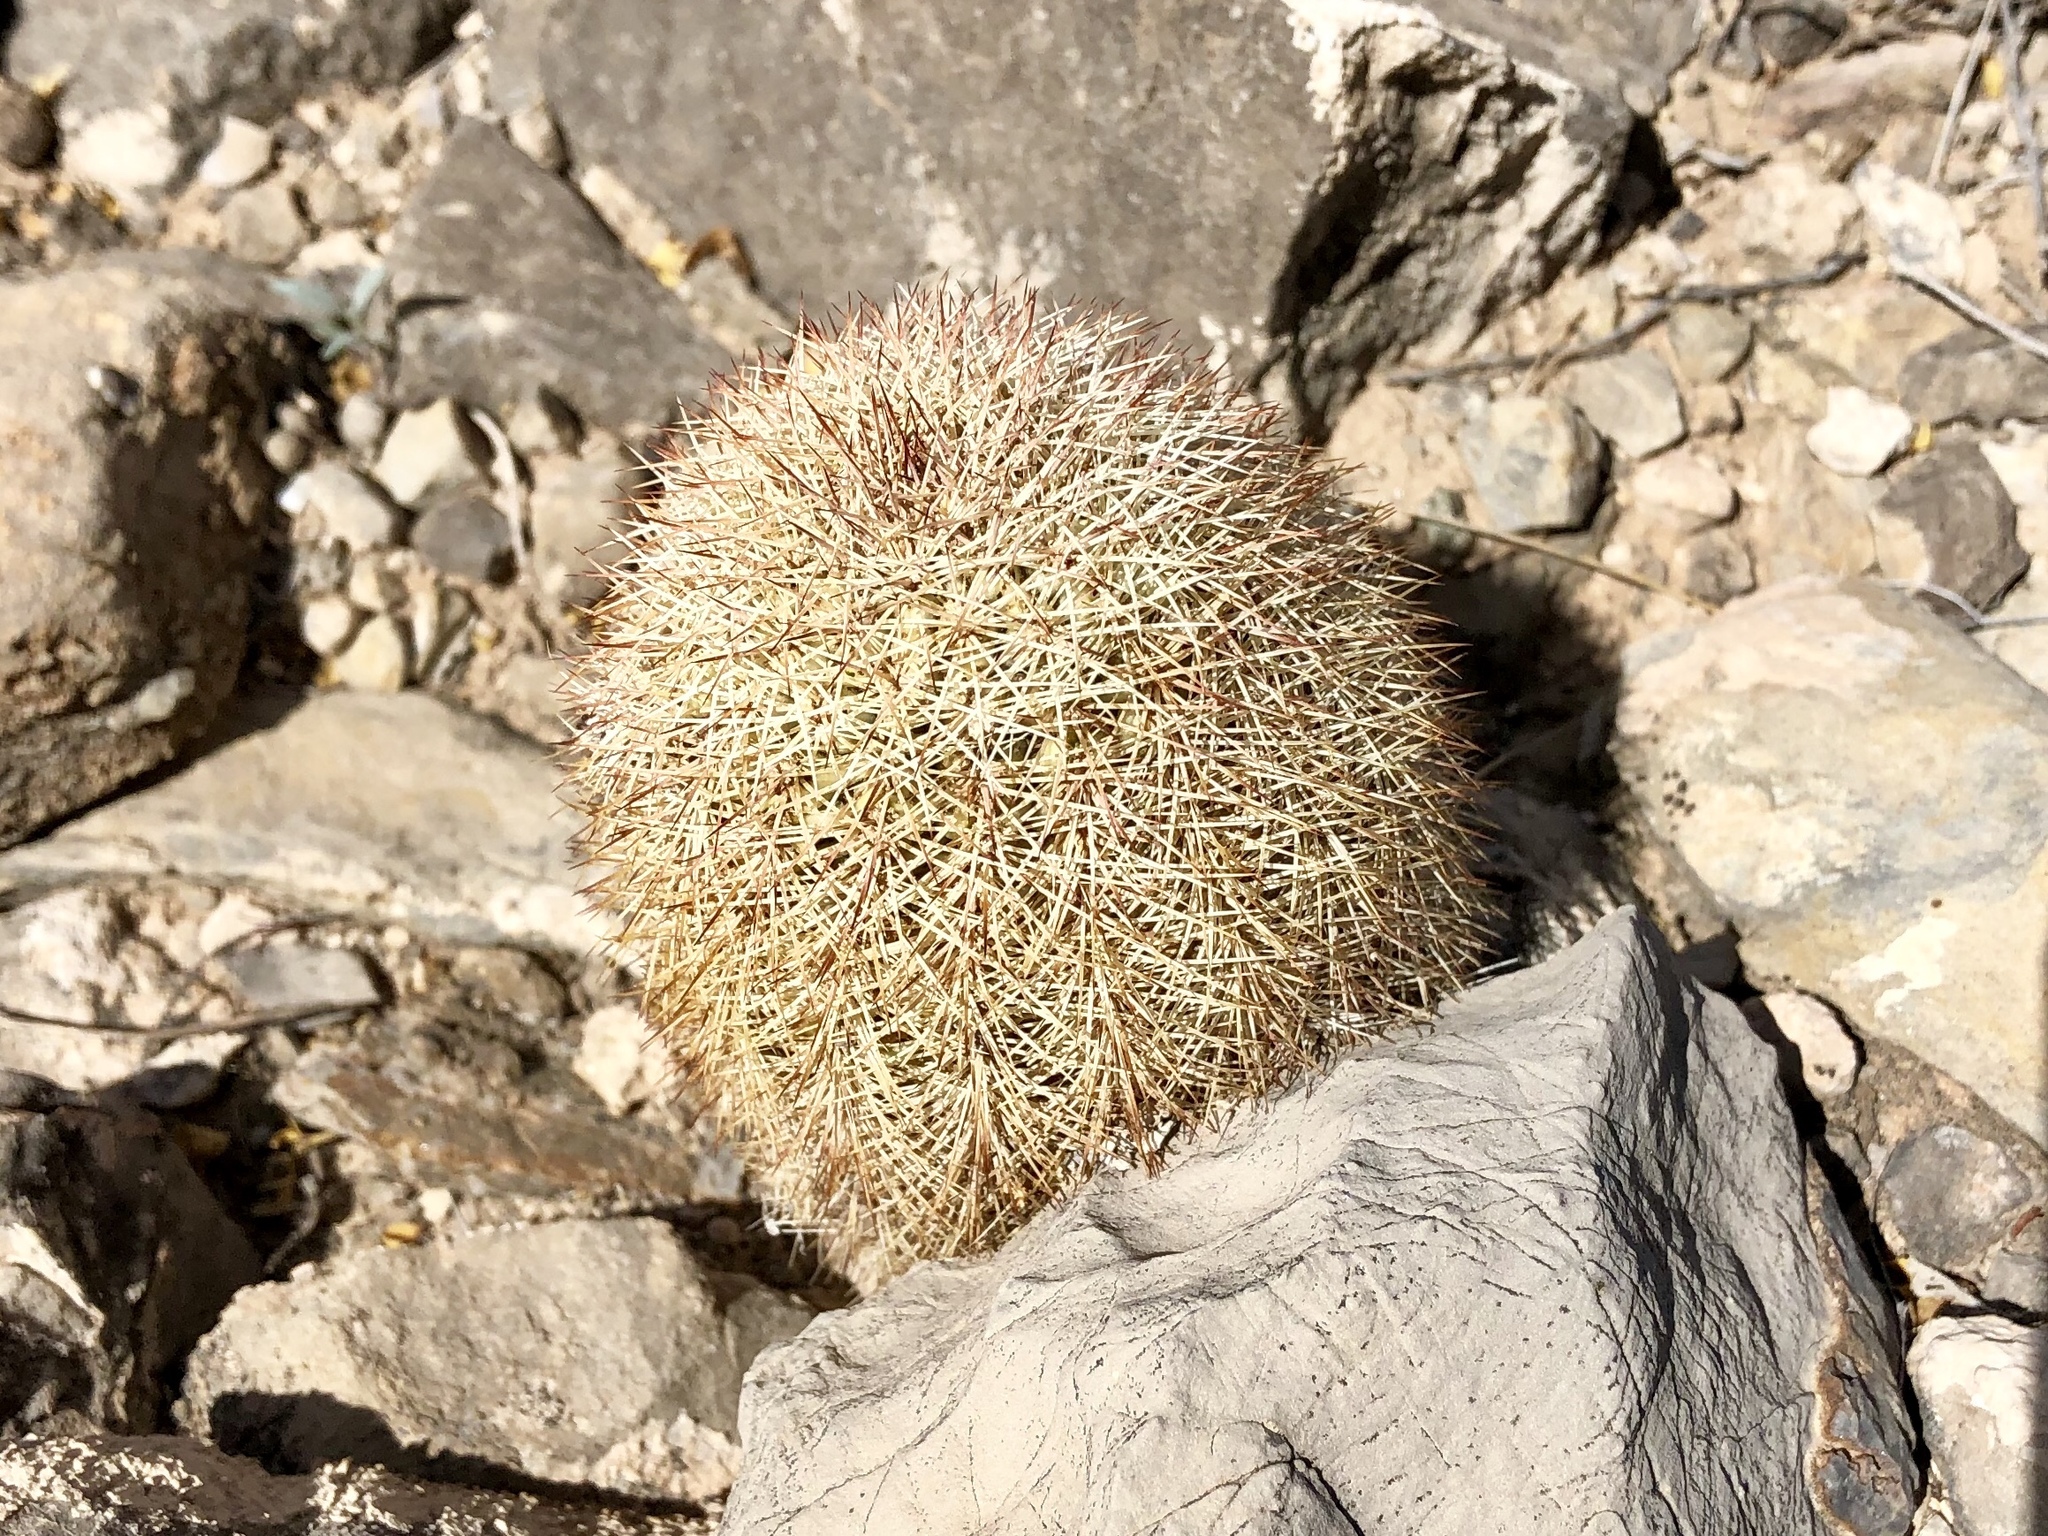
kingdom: Plantae
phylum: Tracheophyta
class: Magnoliopsida
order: Caryophyllales
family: Cactaceae
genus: Echinocereus
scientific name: Echinocereus dasyacanthus
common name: Spiny hedgehog cactus
